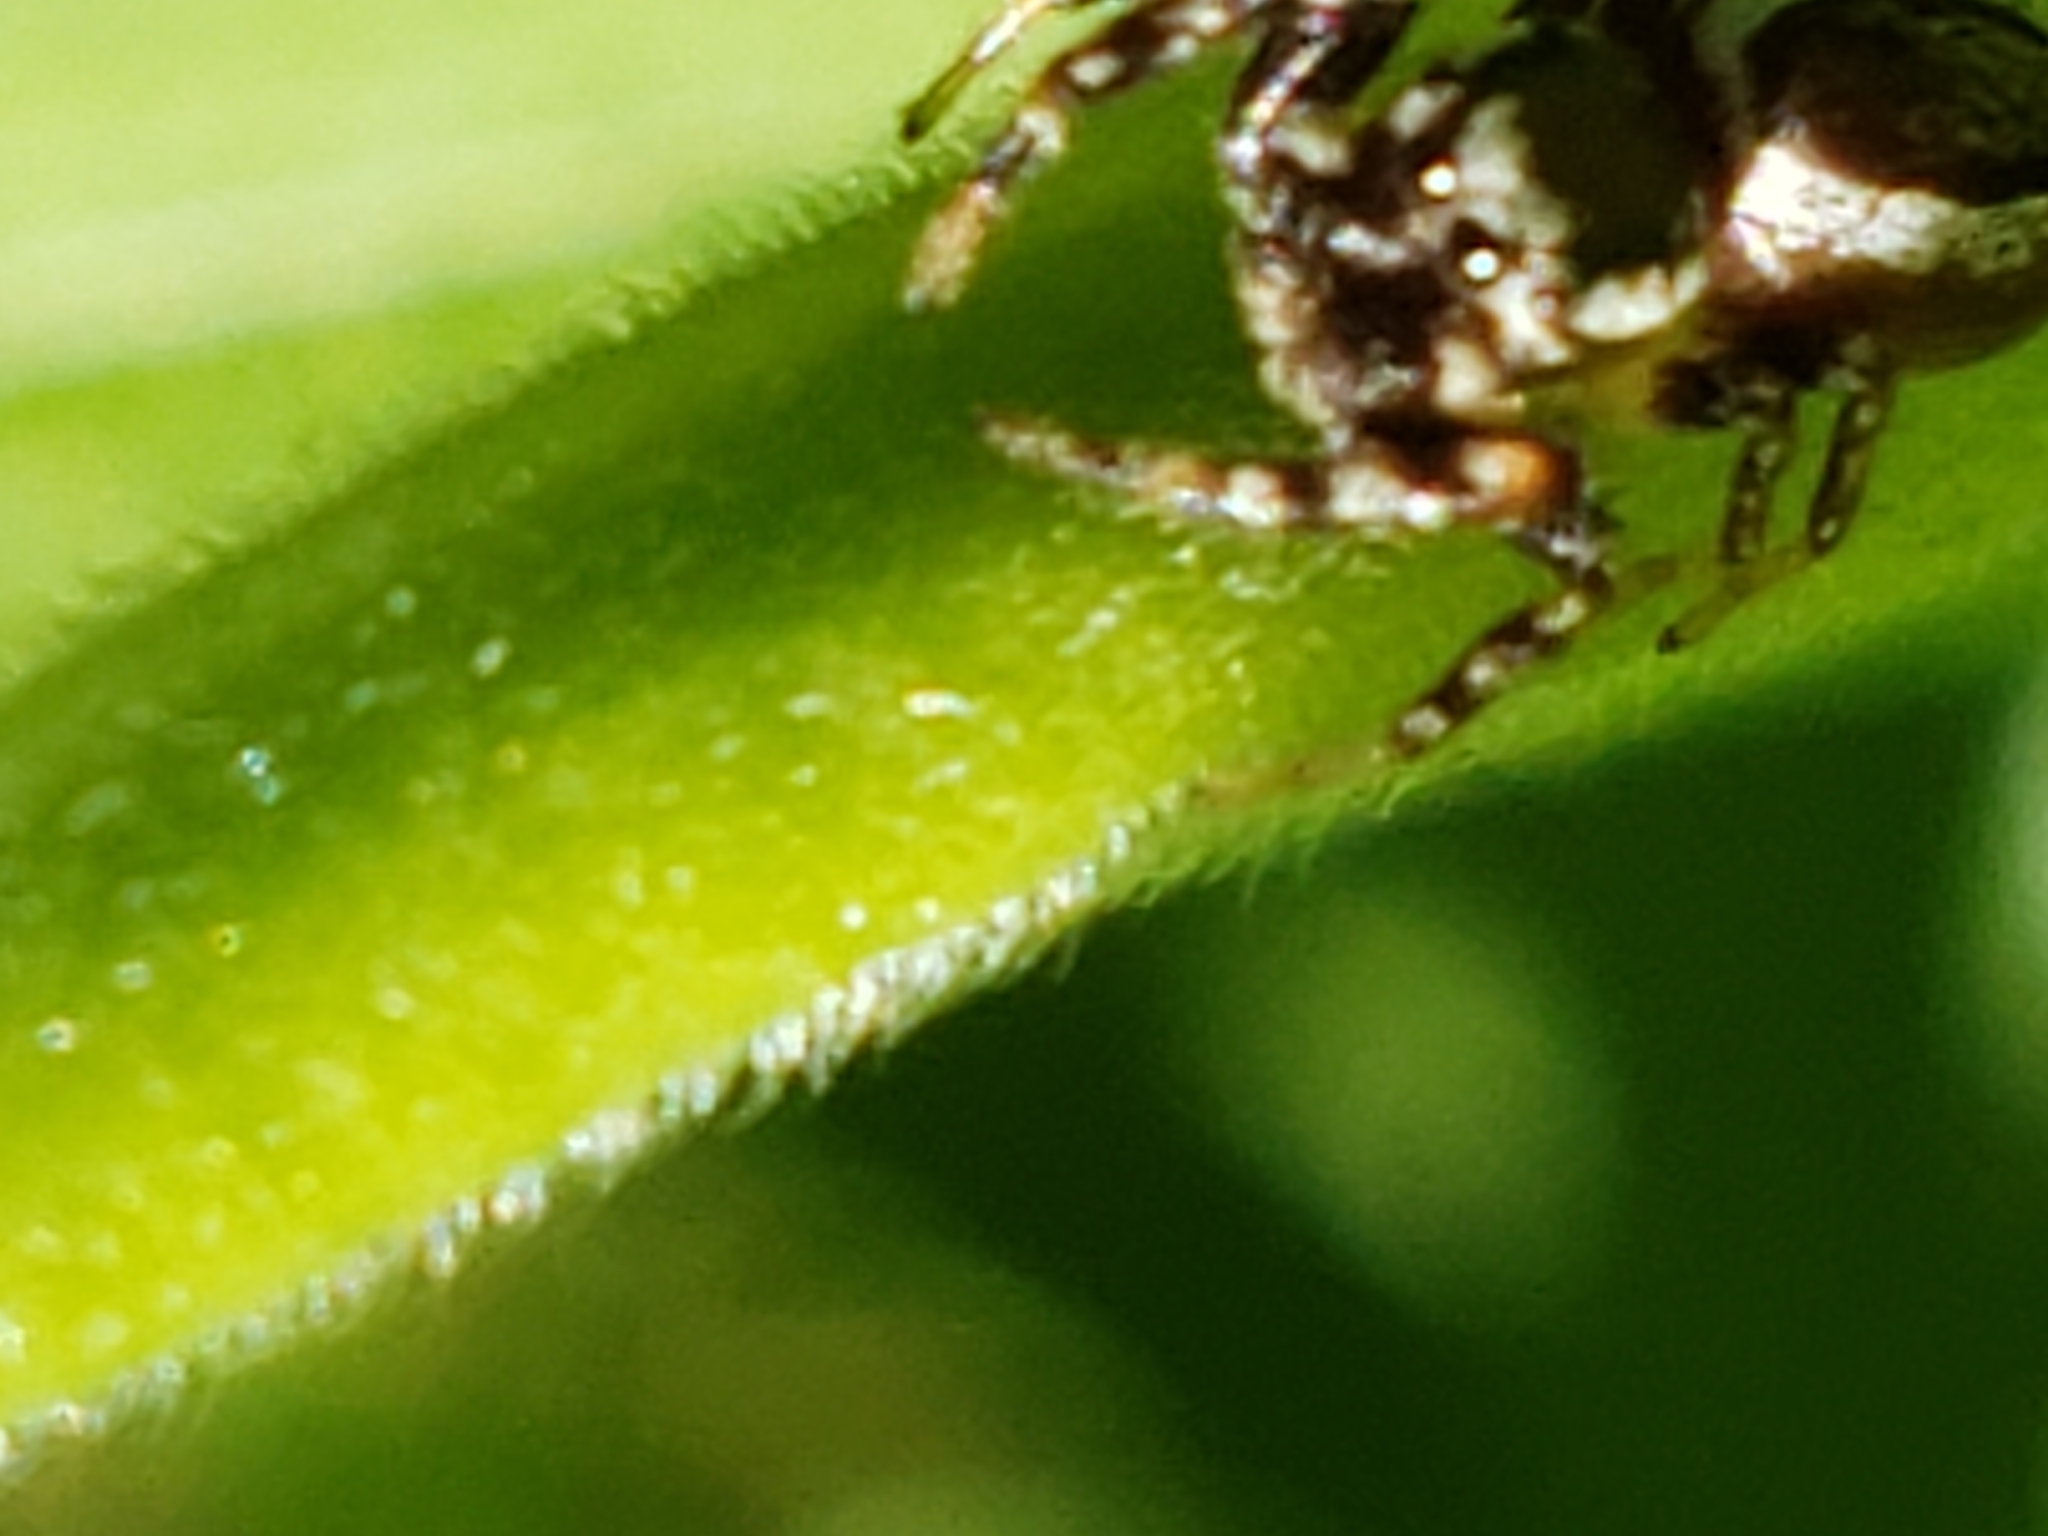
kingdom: Animalia
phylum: Arthropoda
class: Arachnida
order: Araneae
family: Salticidae
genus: Pelegrina
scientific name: Pelegrina proterva
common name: Common white-cheeked jumping spider
